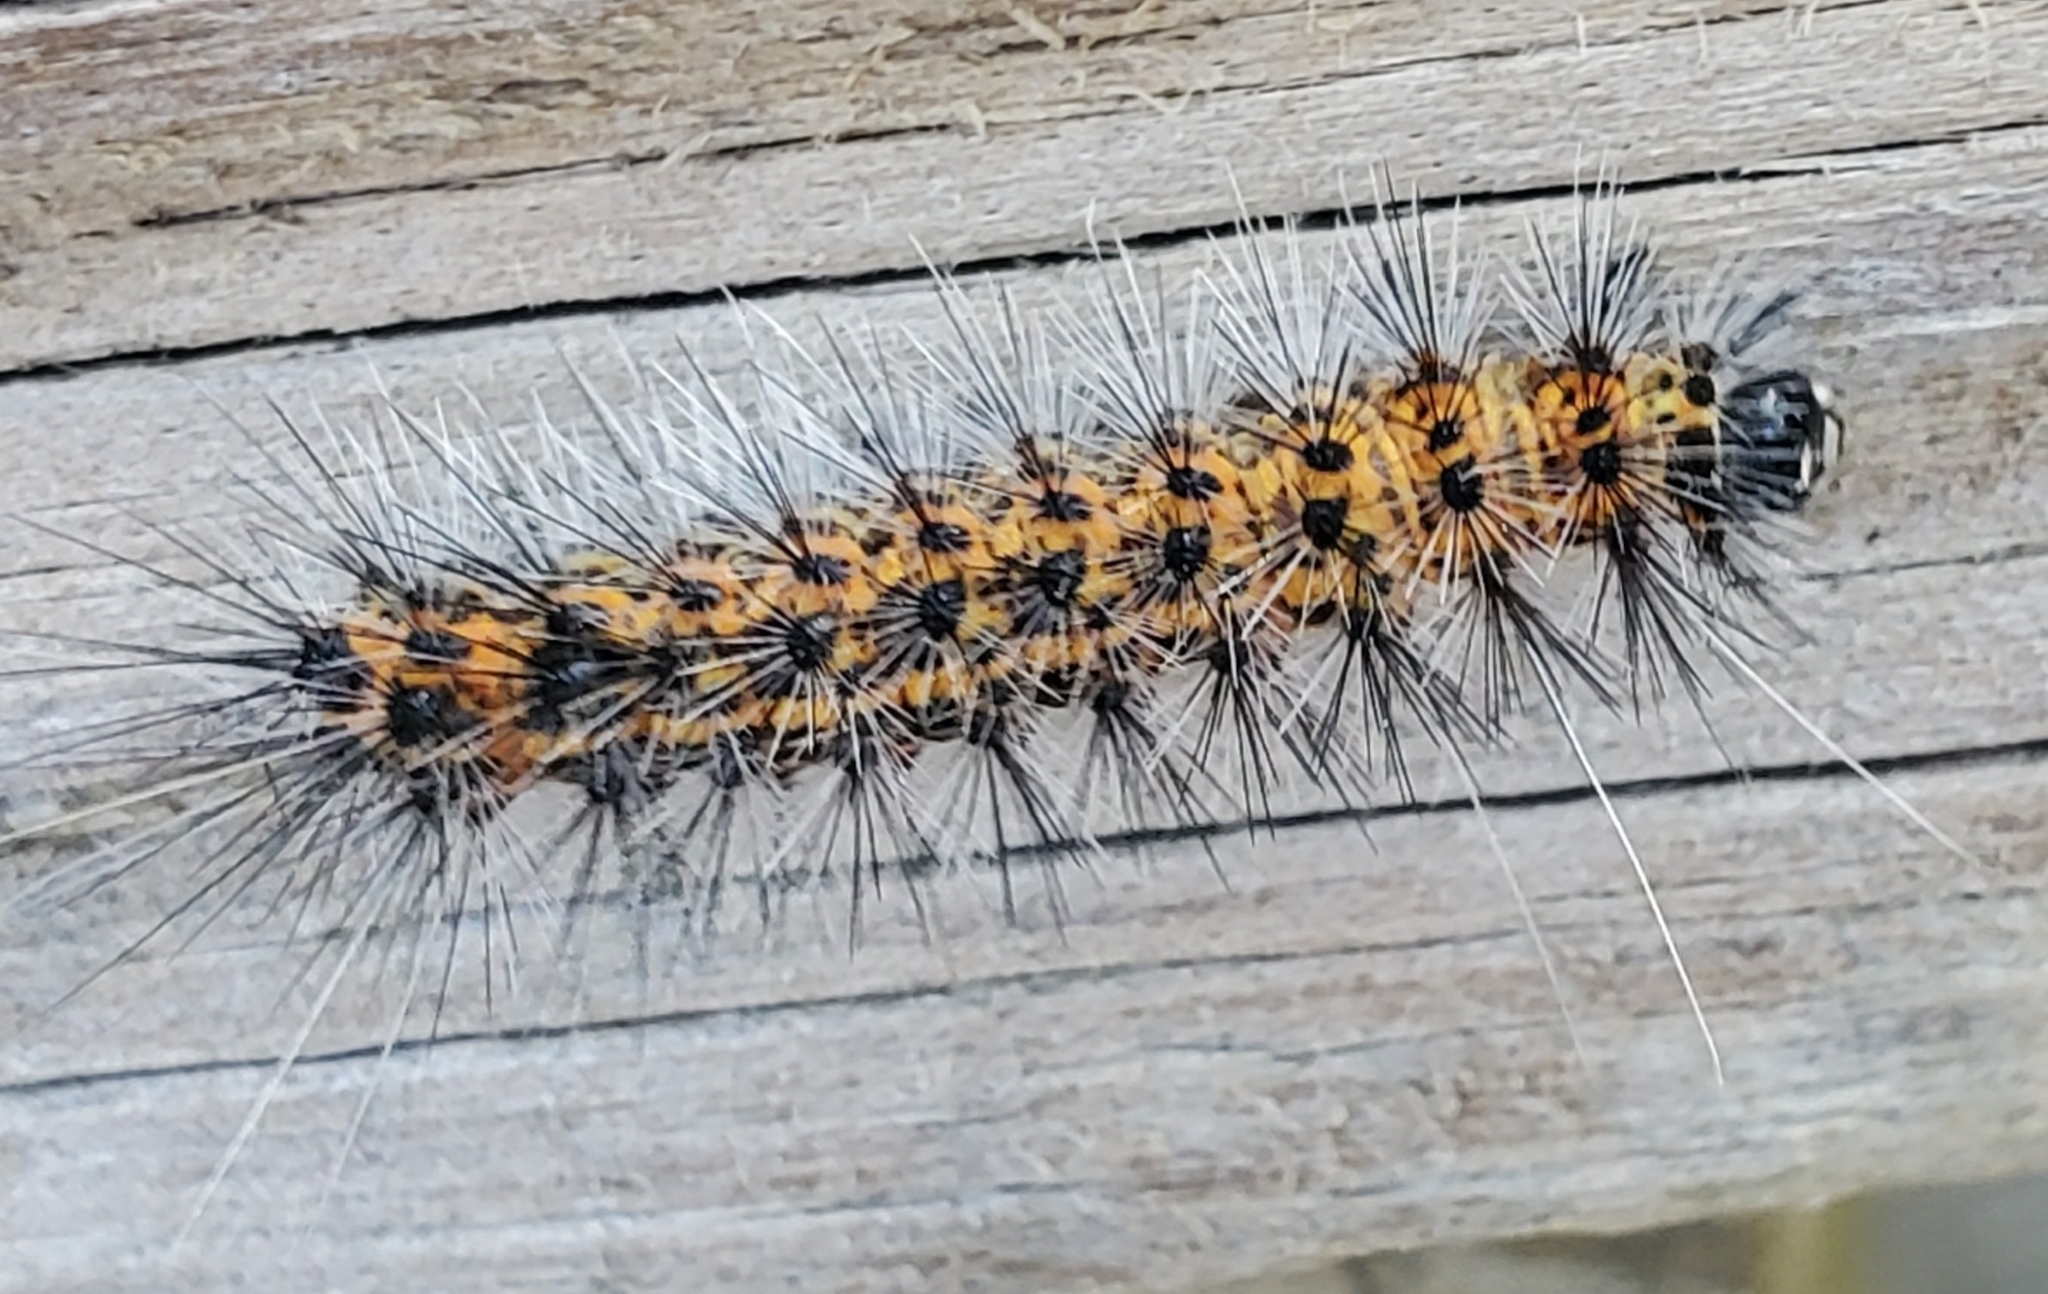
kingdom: Animalia
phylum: Arthropoda
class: Insecta
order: Lepidoptera
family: Erebidae
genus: Spilosoma
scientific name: Spilosoma dubia
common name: Dubious tiger moth
